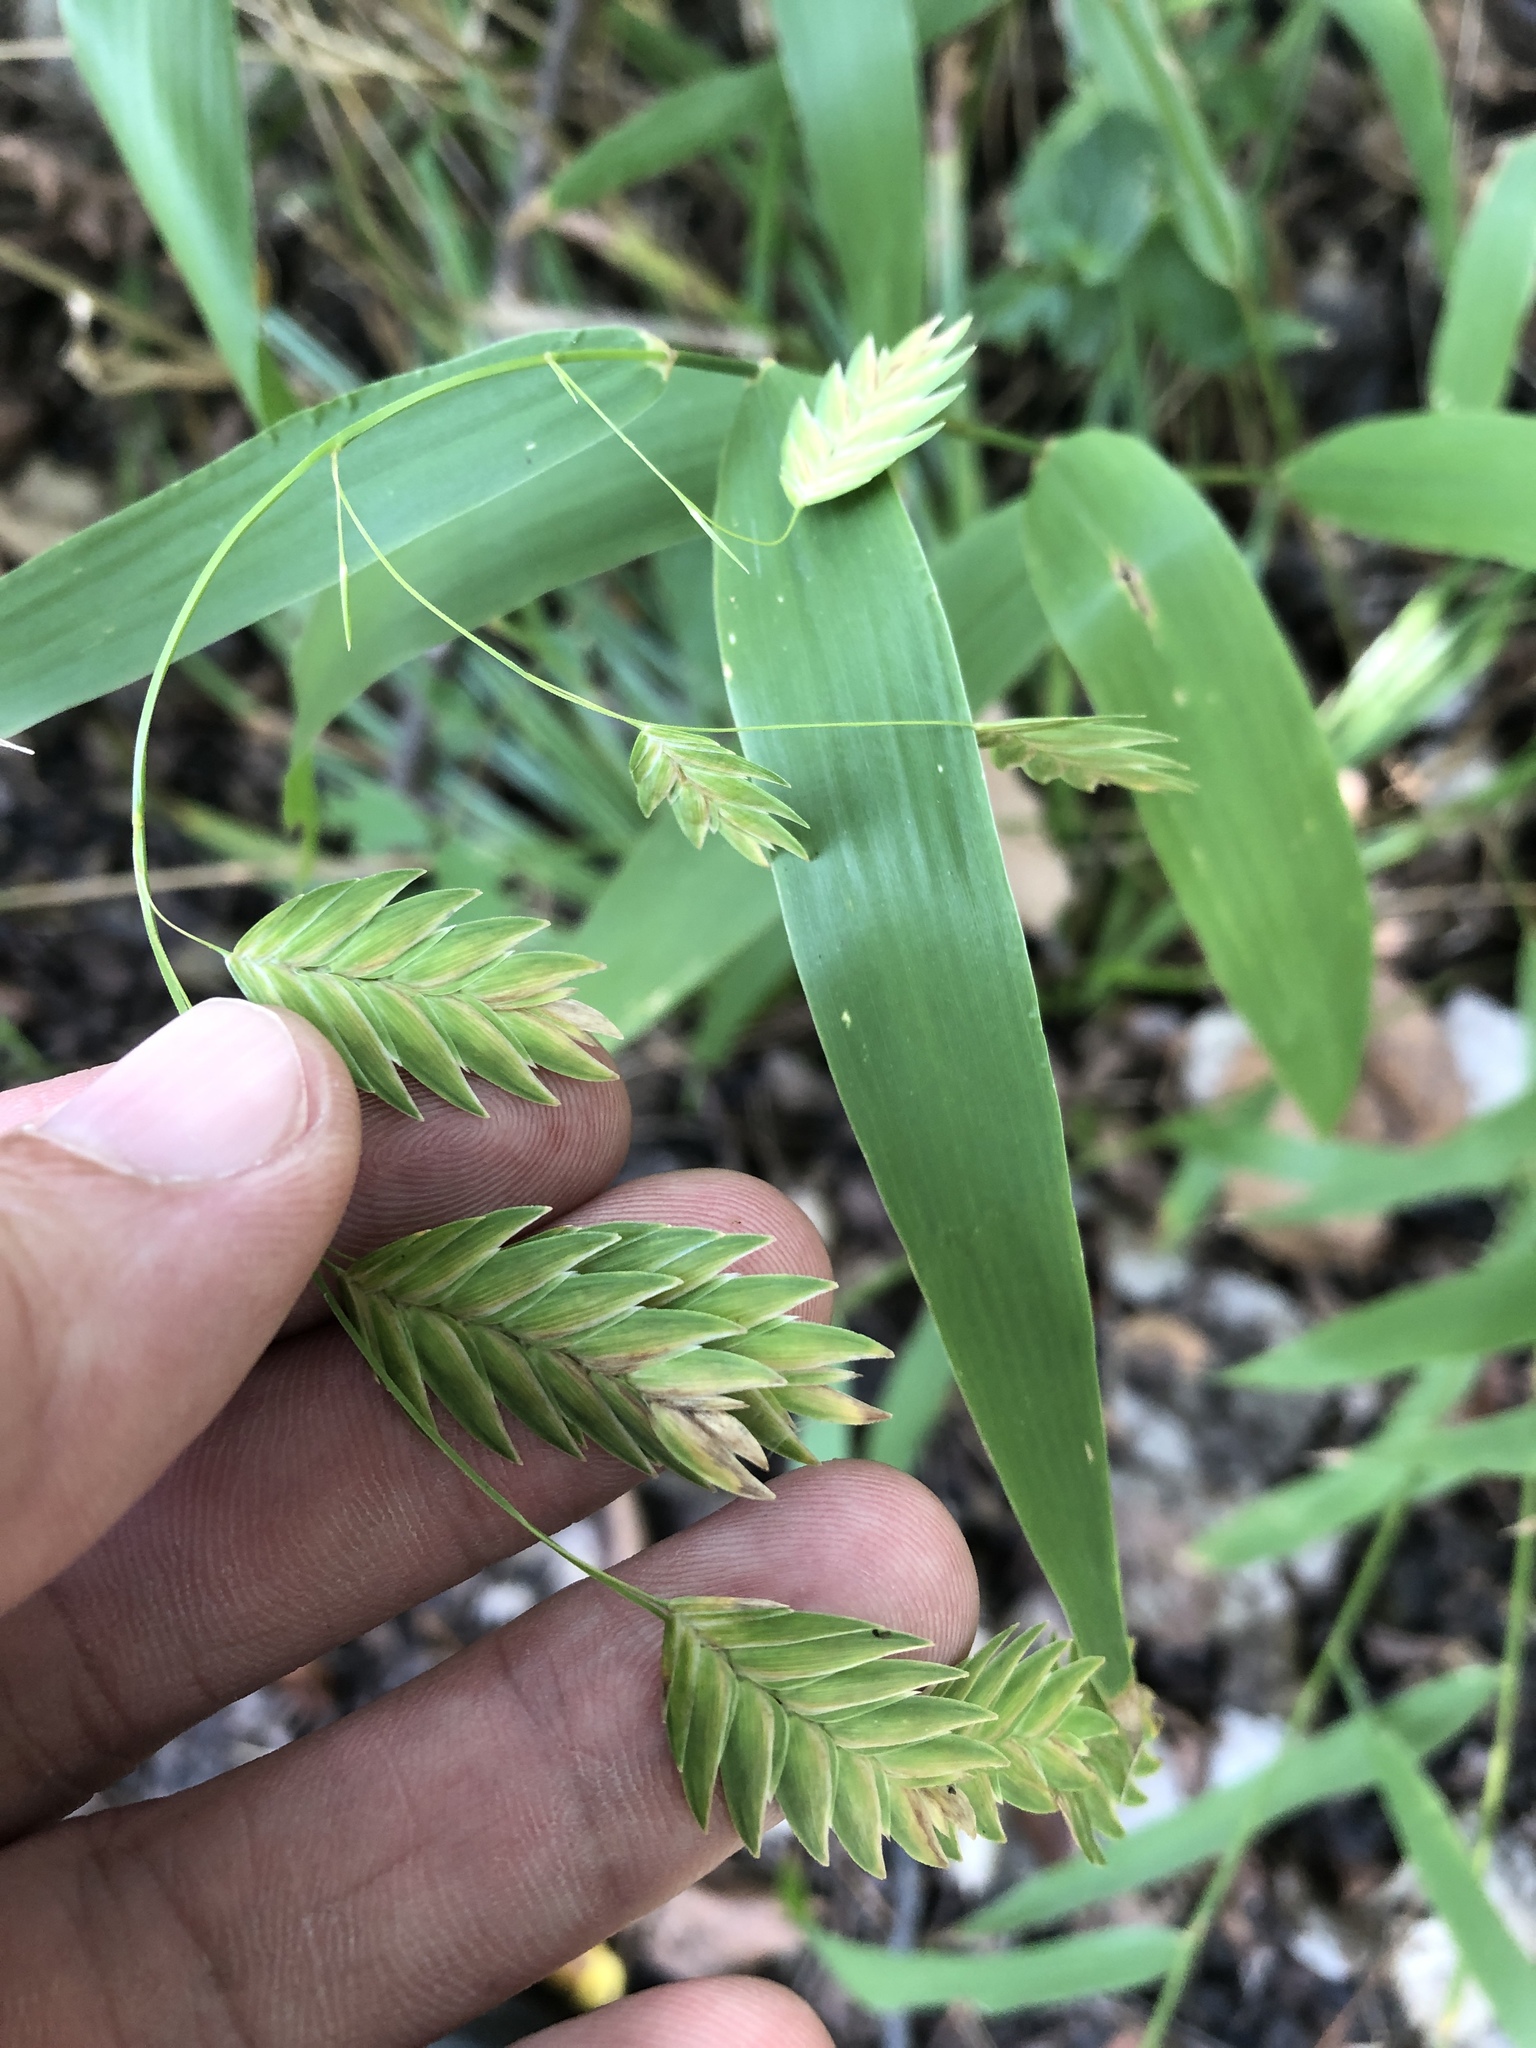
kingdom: Plantae
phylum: Tracheophyta
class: Liliopsida
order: Poales
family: Poaceae
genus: Chasmanthium
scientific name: Chasmanthium latifolium
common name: Broad-leaved chasmanthium
